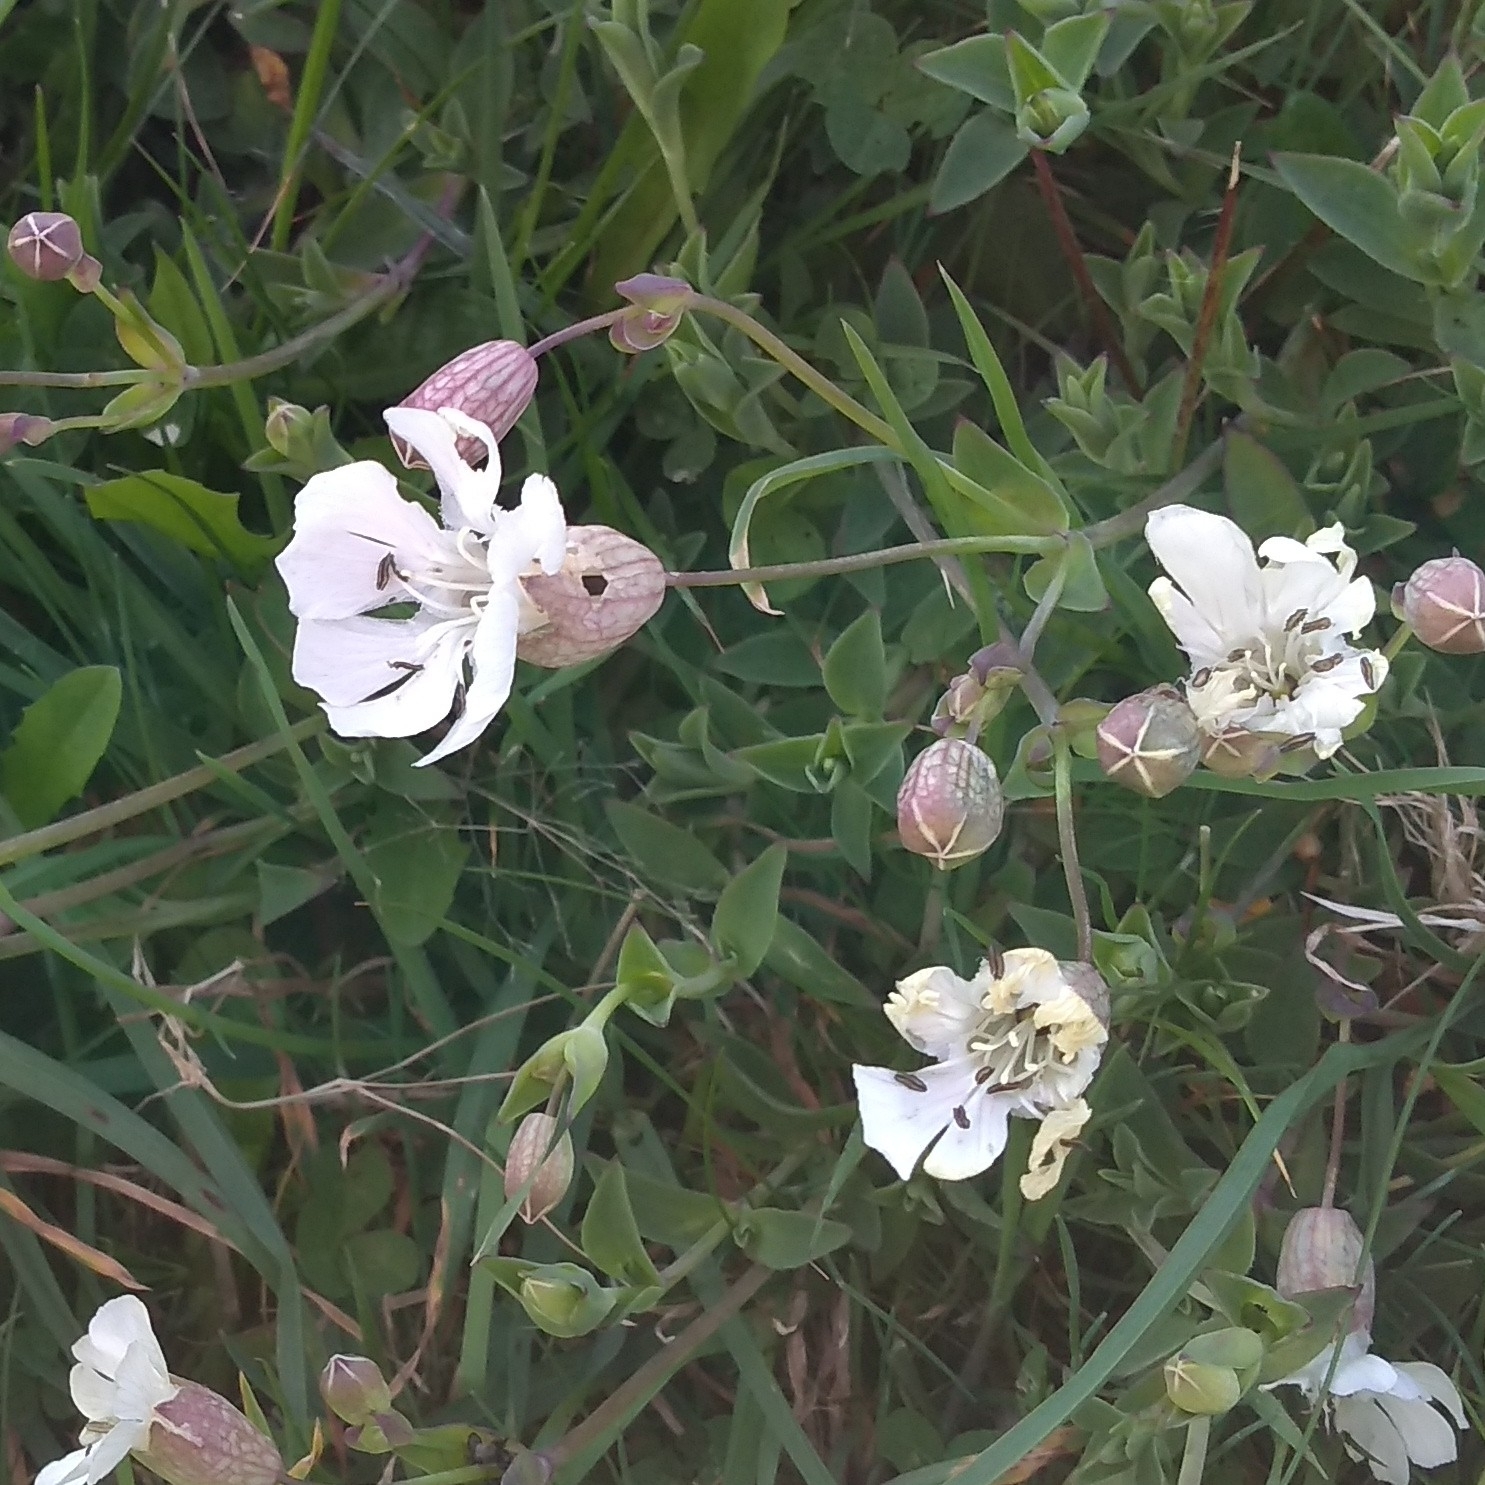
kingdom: Plantae
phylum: Tracheophyta
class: Magnoliopsida
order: Caryophyllales
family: Caryophyllaceae
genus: Silene
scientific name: Silene uniflora
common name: Sea campion
